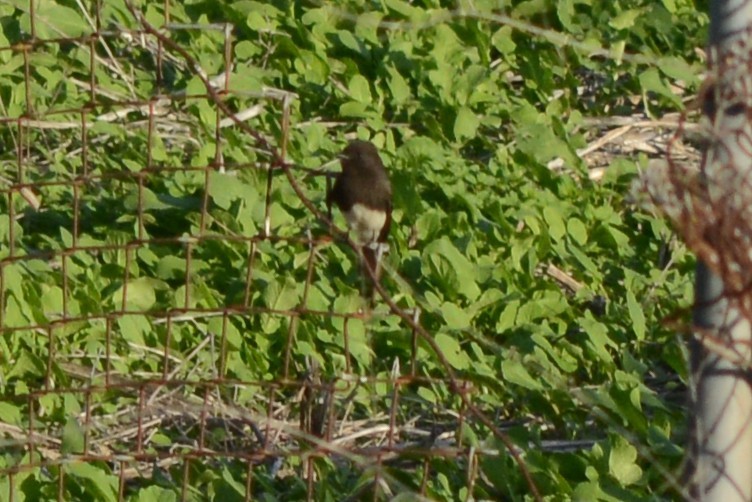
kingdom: Animalia
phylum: Chordata
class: Aves
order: Passeriformes
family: Tyrannidae
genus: Sayornis
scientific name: Sayornis nigricans
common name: Black phoebe
